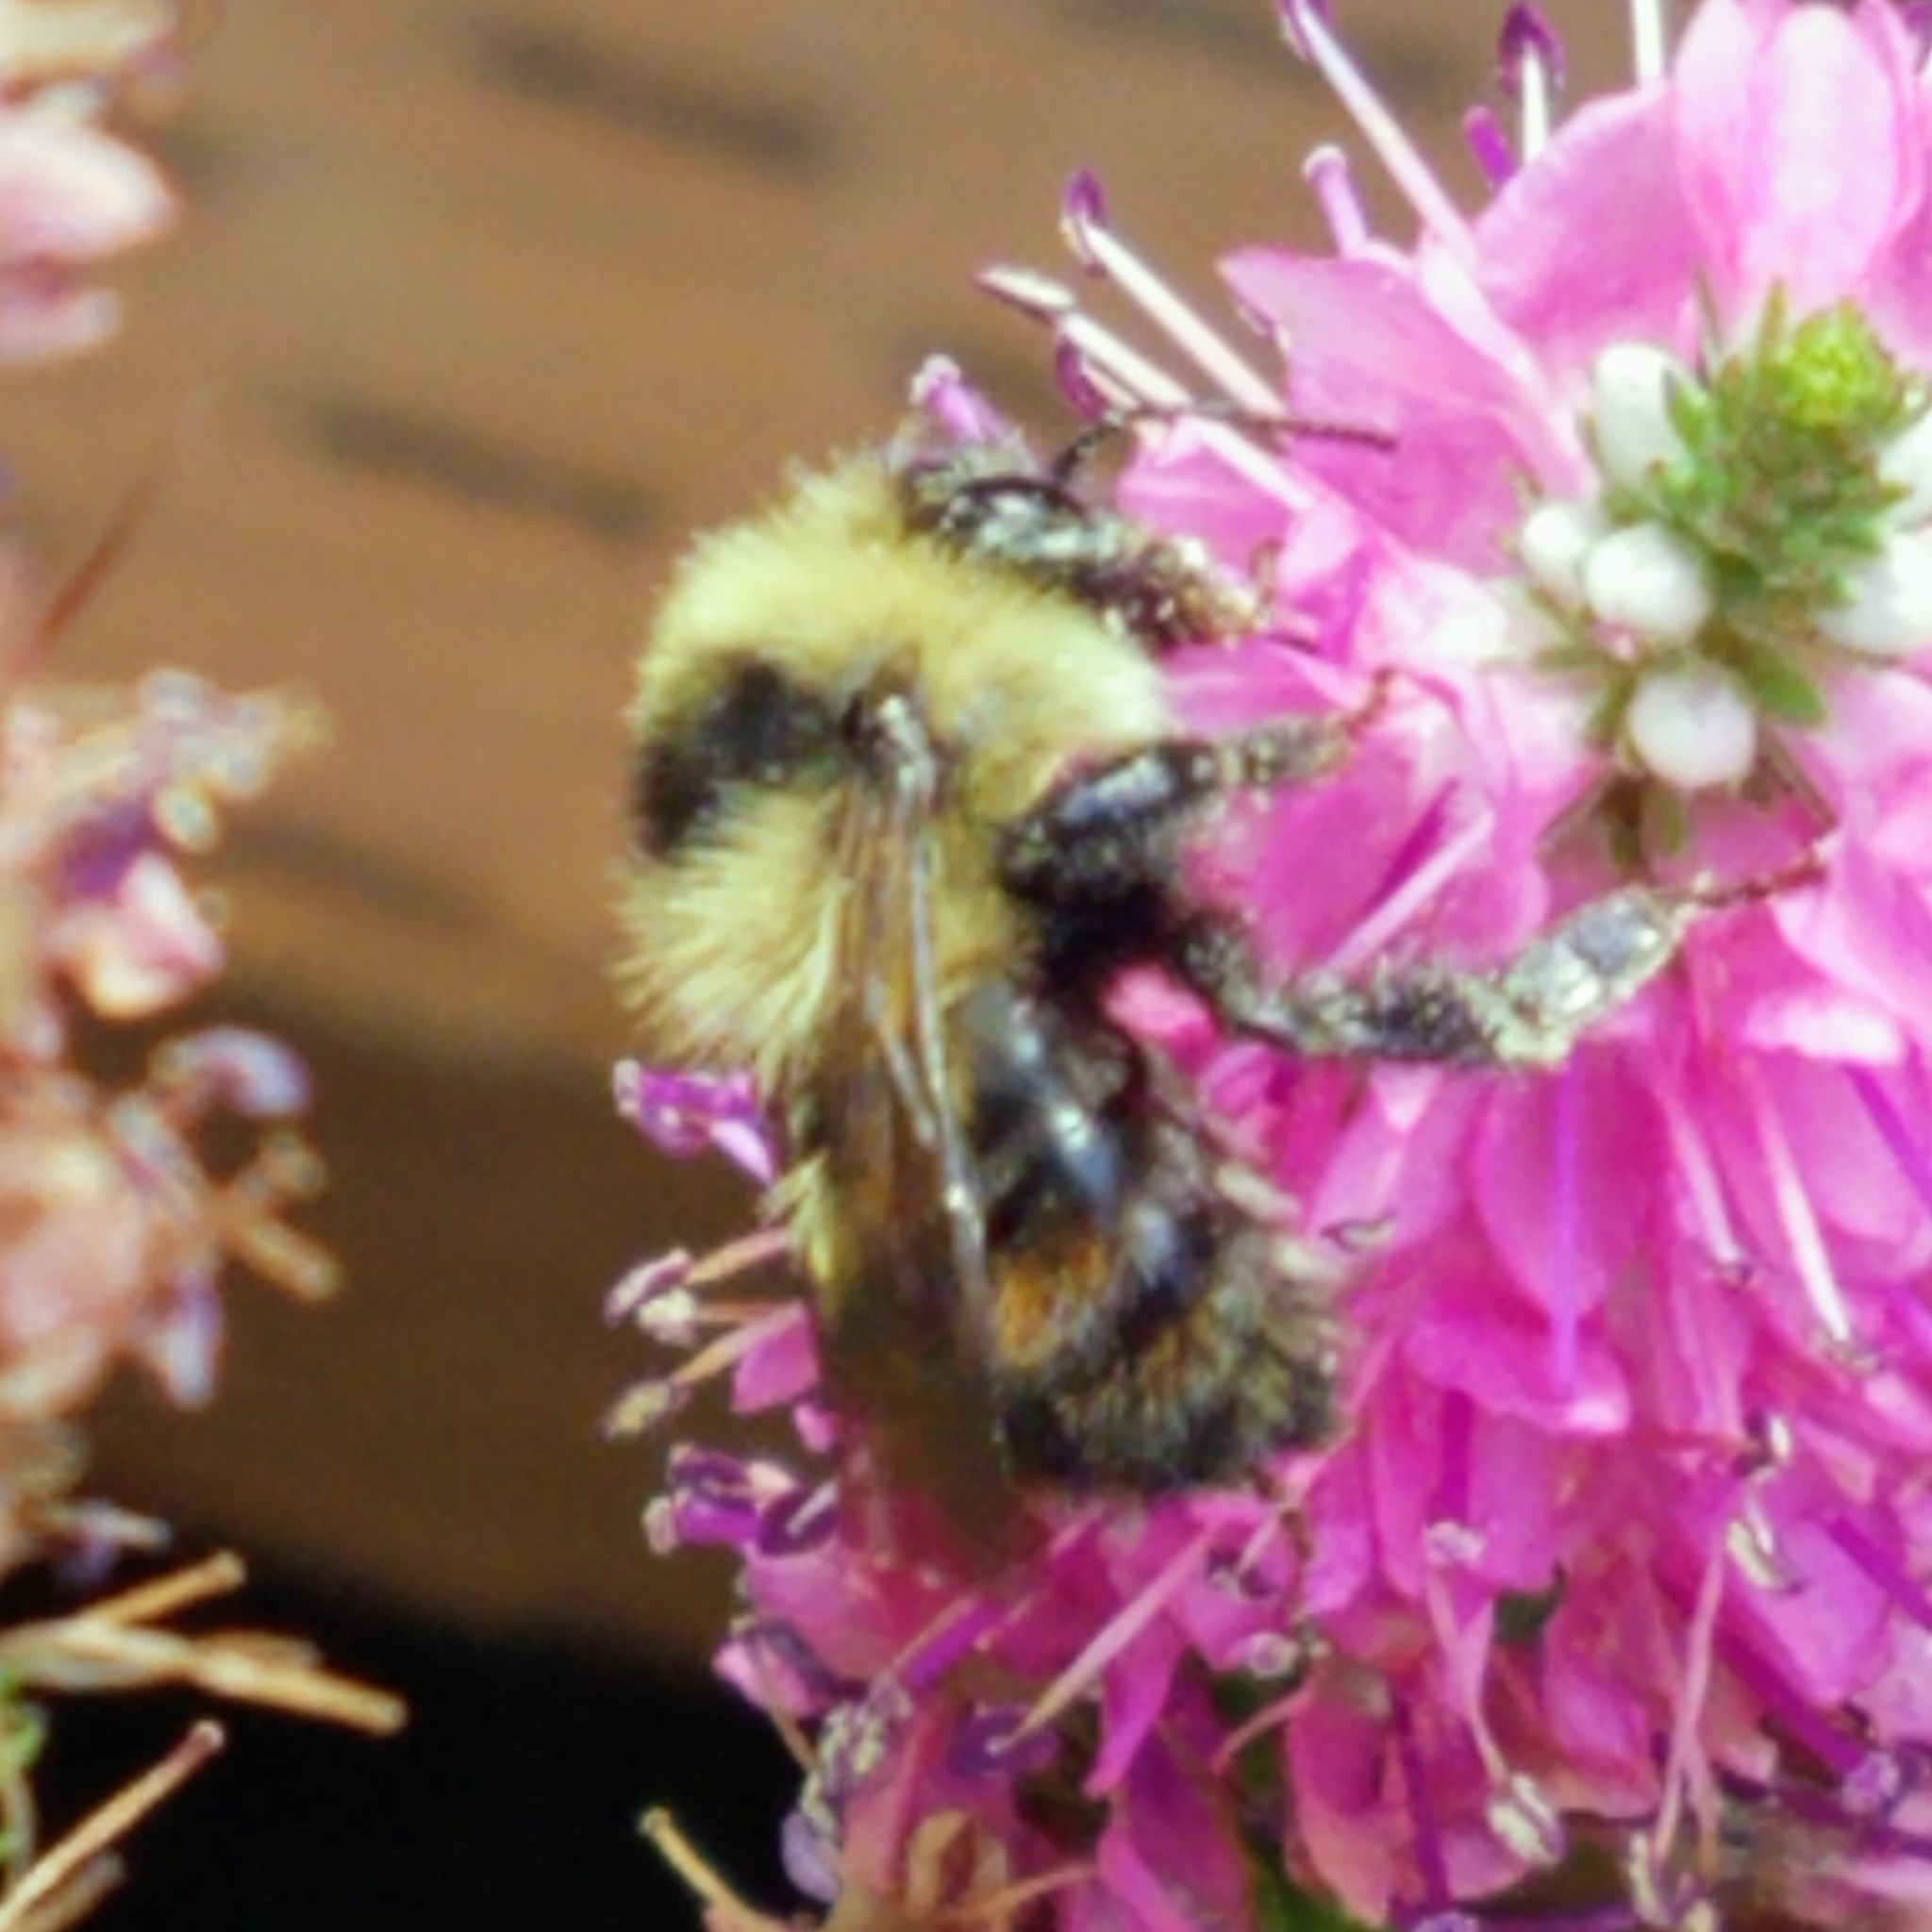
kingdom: Animalia
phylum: Arthropoda
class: Insecta
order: Hymenoptera
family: Apidae
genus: Bombus
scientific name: Bombus rufocinctus
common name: Red-belted bumble bee
